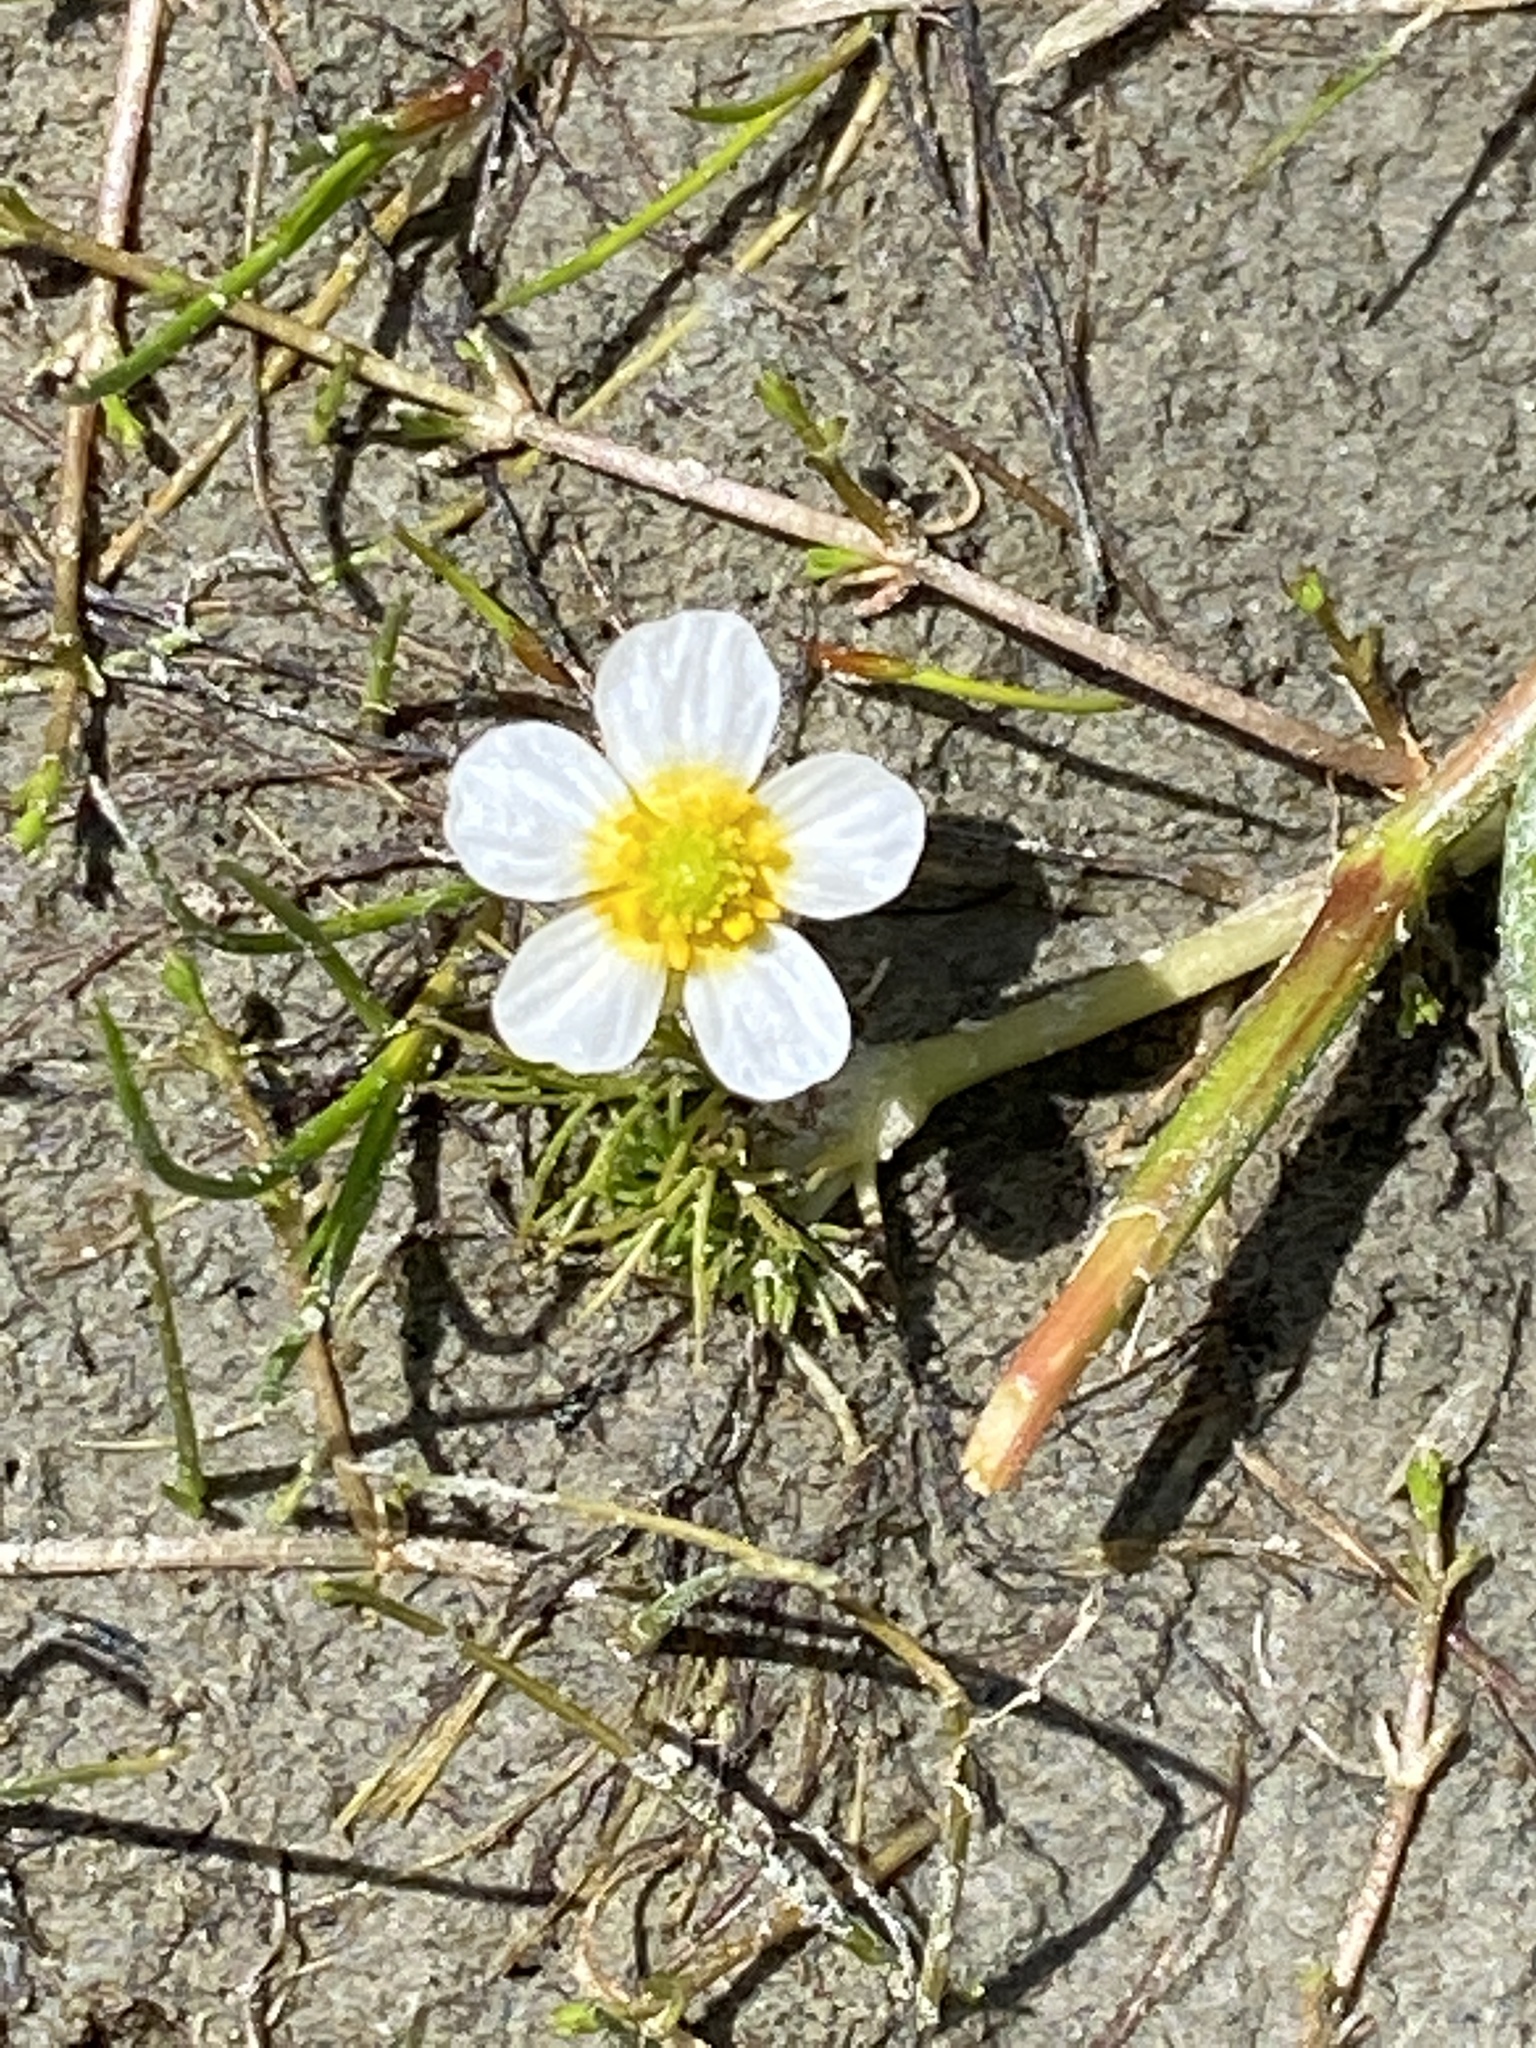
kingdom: Plantae
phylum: Tracheophyta
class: Magnoliopsida
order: Ranunculales
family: Ranunculaceae
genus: Ranunculus
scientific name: Ranunculus trichophyllus
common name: Thread-leaved water-crowfoot
